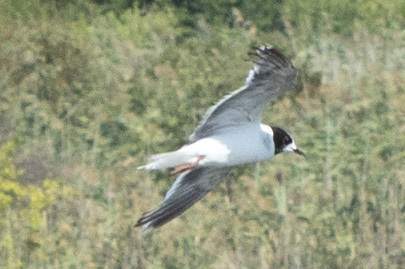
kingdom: Animalia
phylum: Chordata
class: Aves
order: Charadriiformes
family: Laridae
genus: Hydrocoloeus
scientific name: Hydrocoloeus minutus
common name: Little gull
